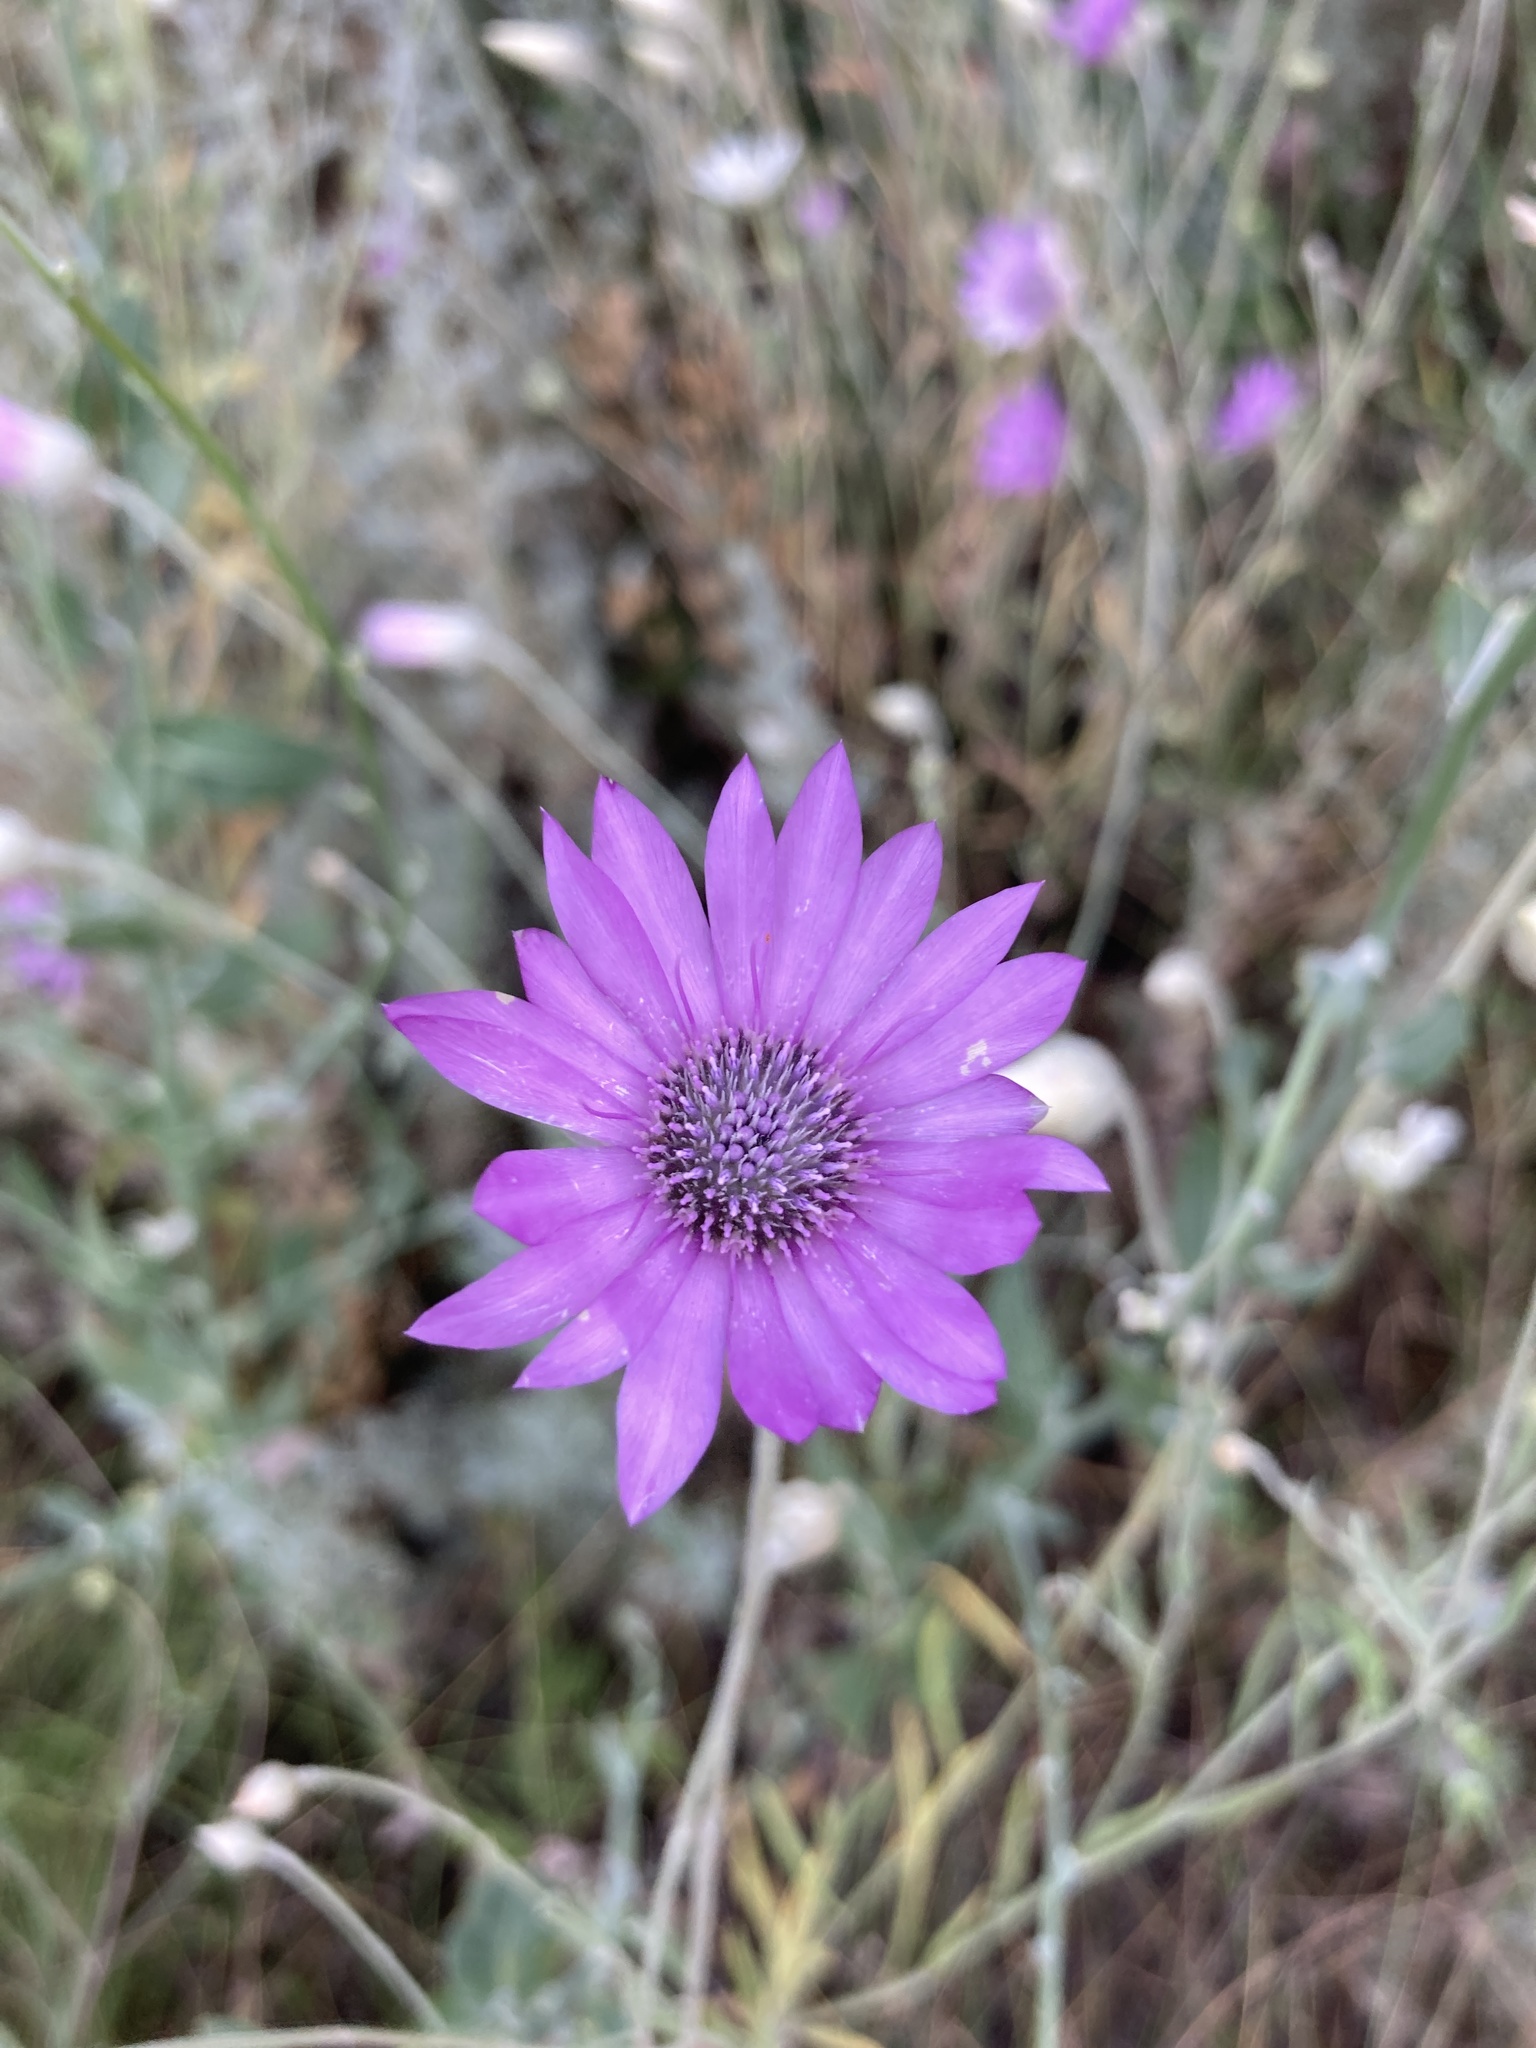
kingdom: Plantae
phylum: Tracheophyta
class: Magnoliopsida
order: Asterales
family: Asteraceae
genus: Xeranthemum
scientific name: Xeranthemum annuum
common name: Immortelle
